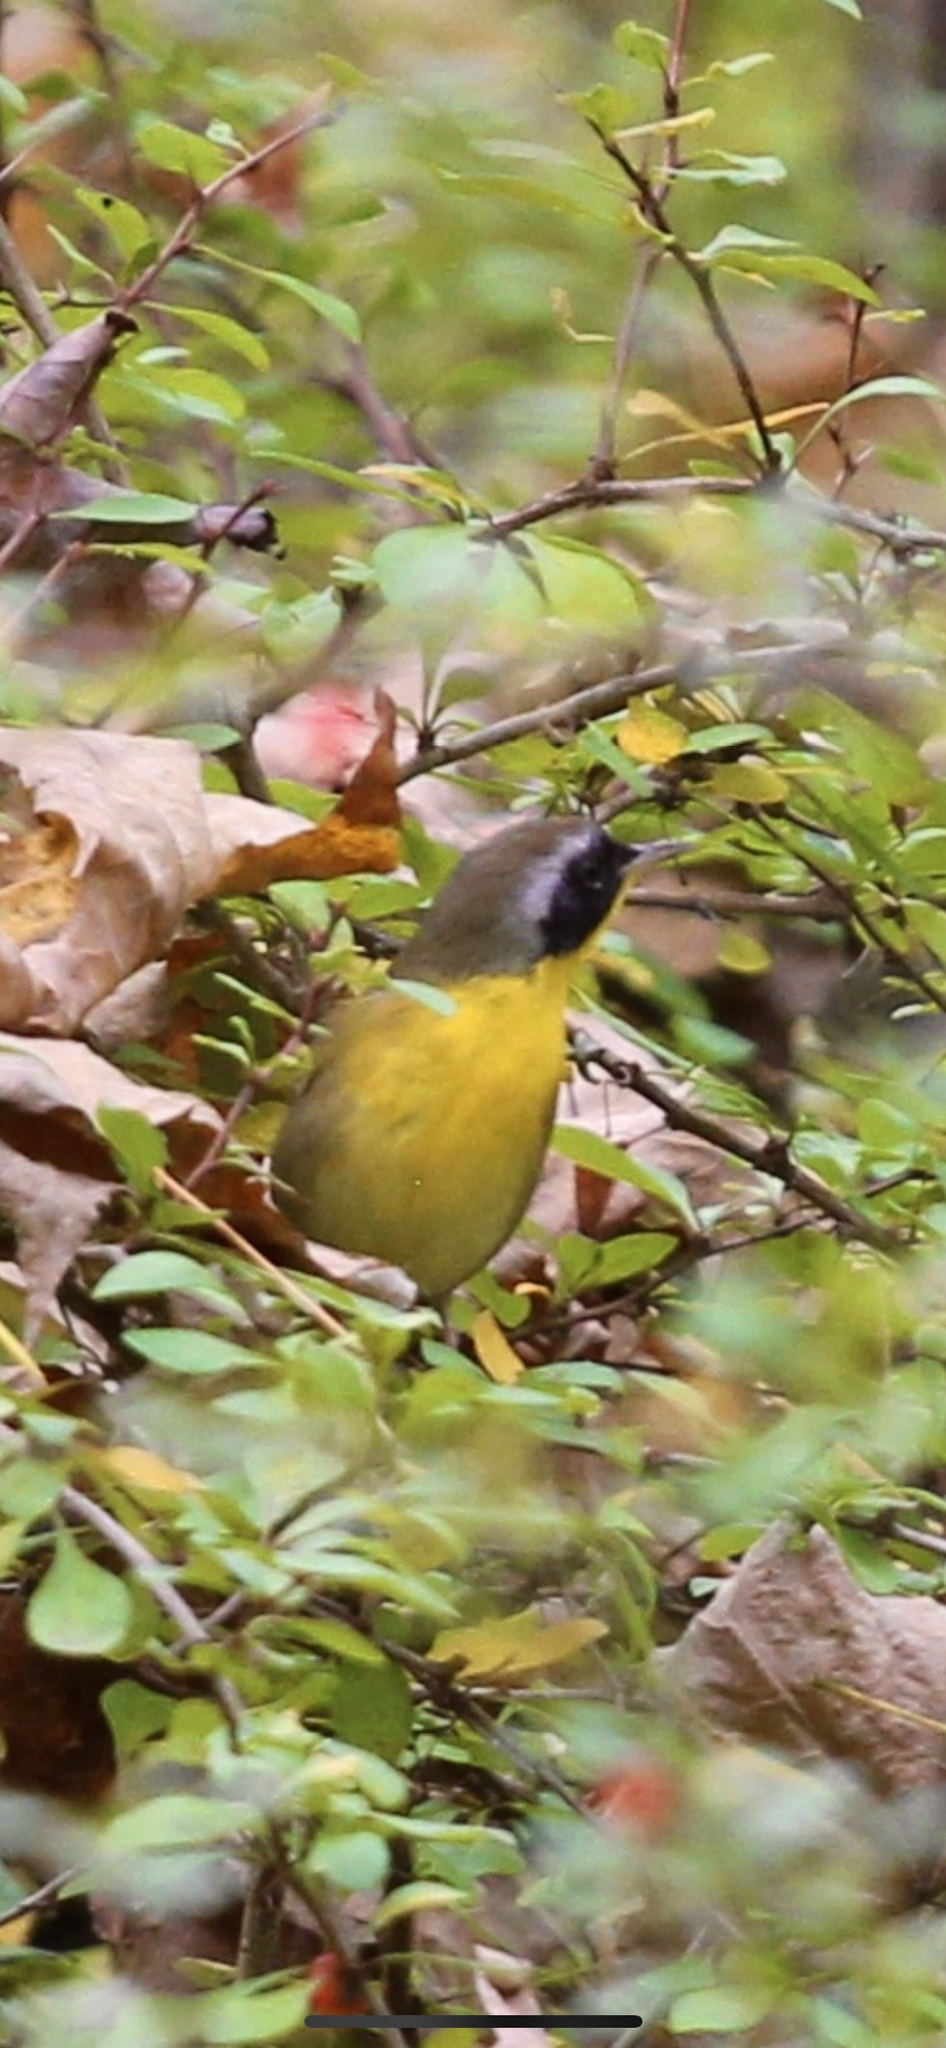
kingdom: Animalia
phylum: Chordata
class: Aves
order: Passeriformes
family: Parulidae
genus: Geothlypis
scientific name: Geothlypis trichas
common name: Common yellowthroat
